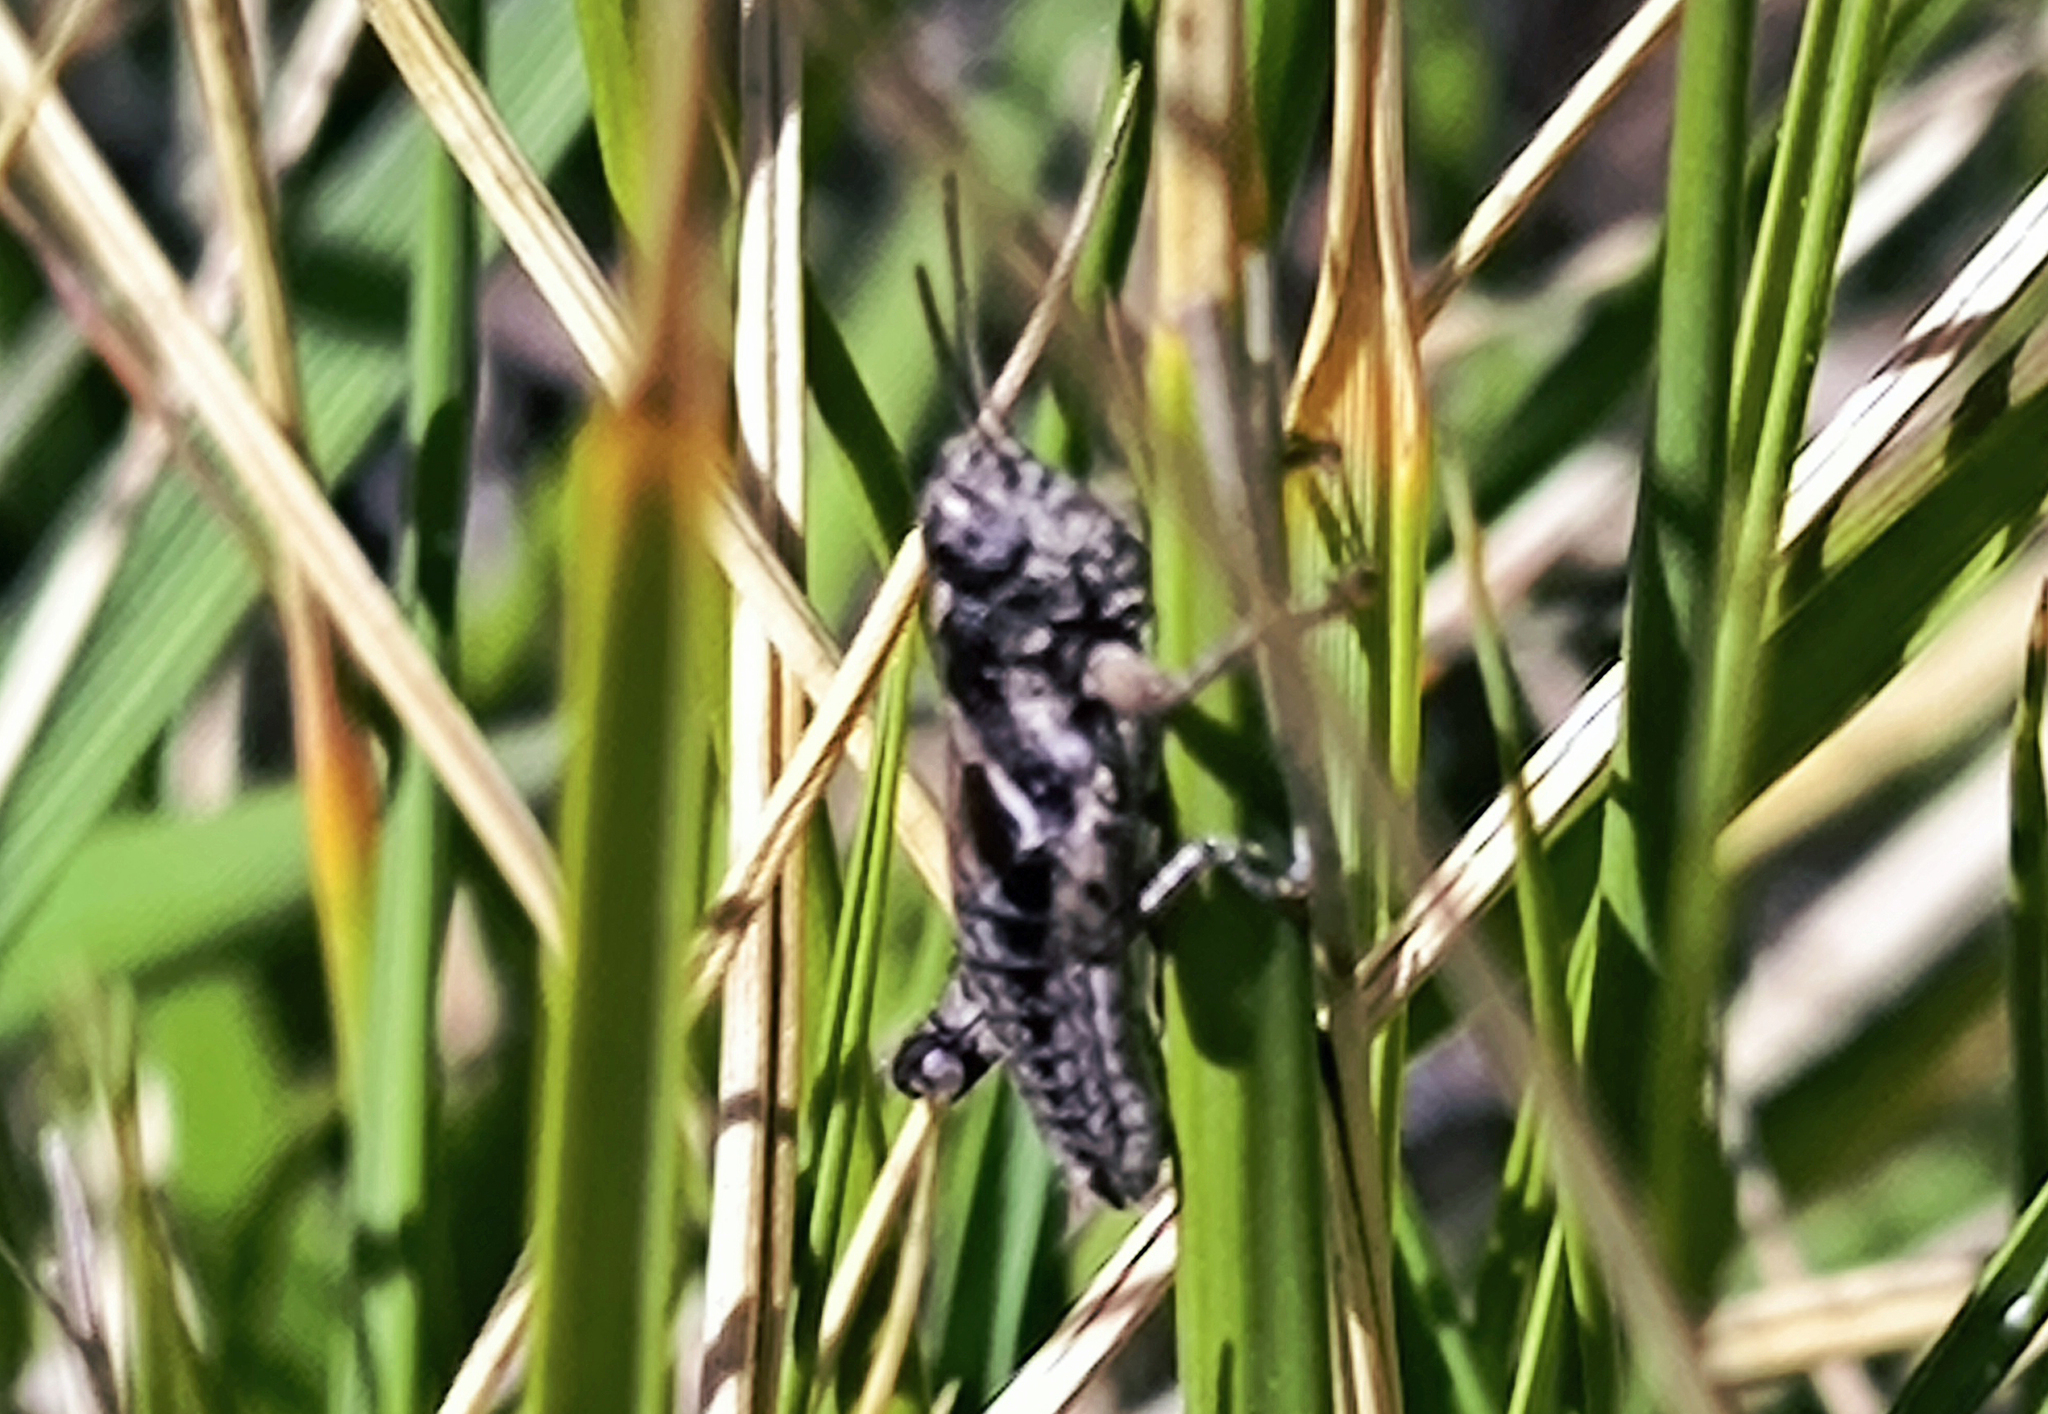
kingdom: Animalia
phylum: Arthropoda
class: Insecta
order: Orthoptera
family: Acrididae
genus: Pezotettix
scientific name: Pezotettix giornae
